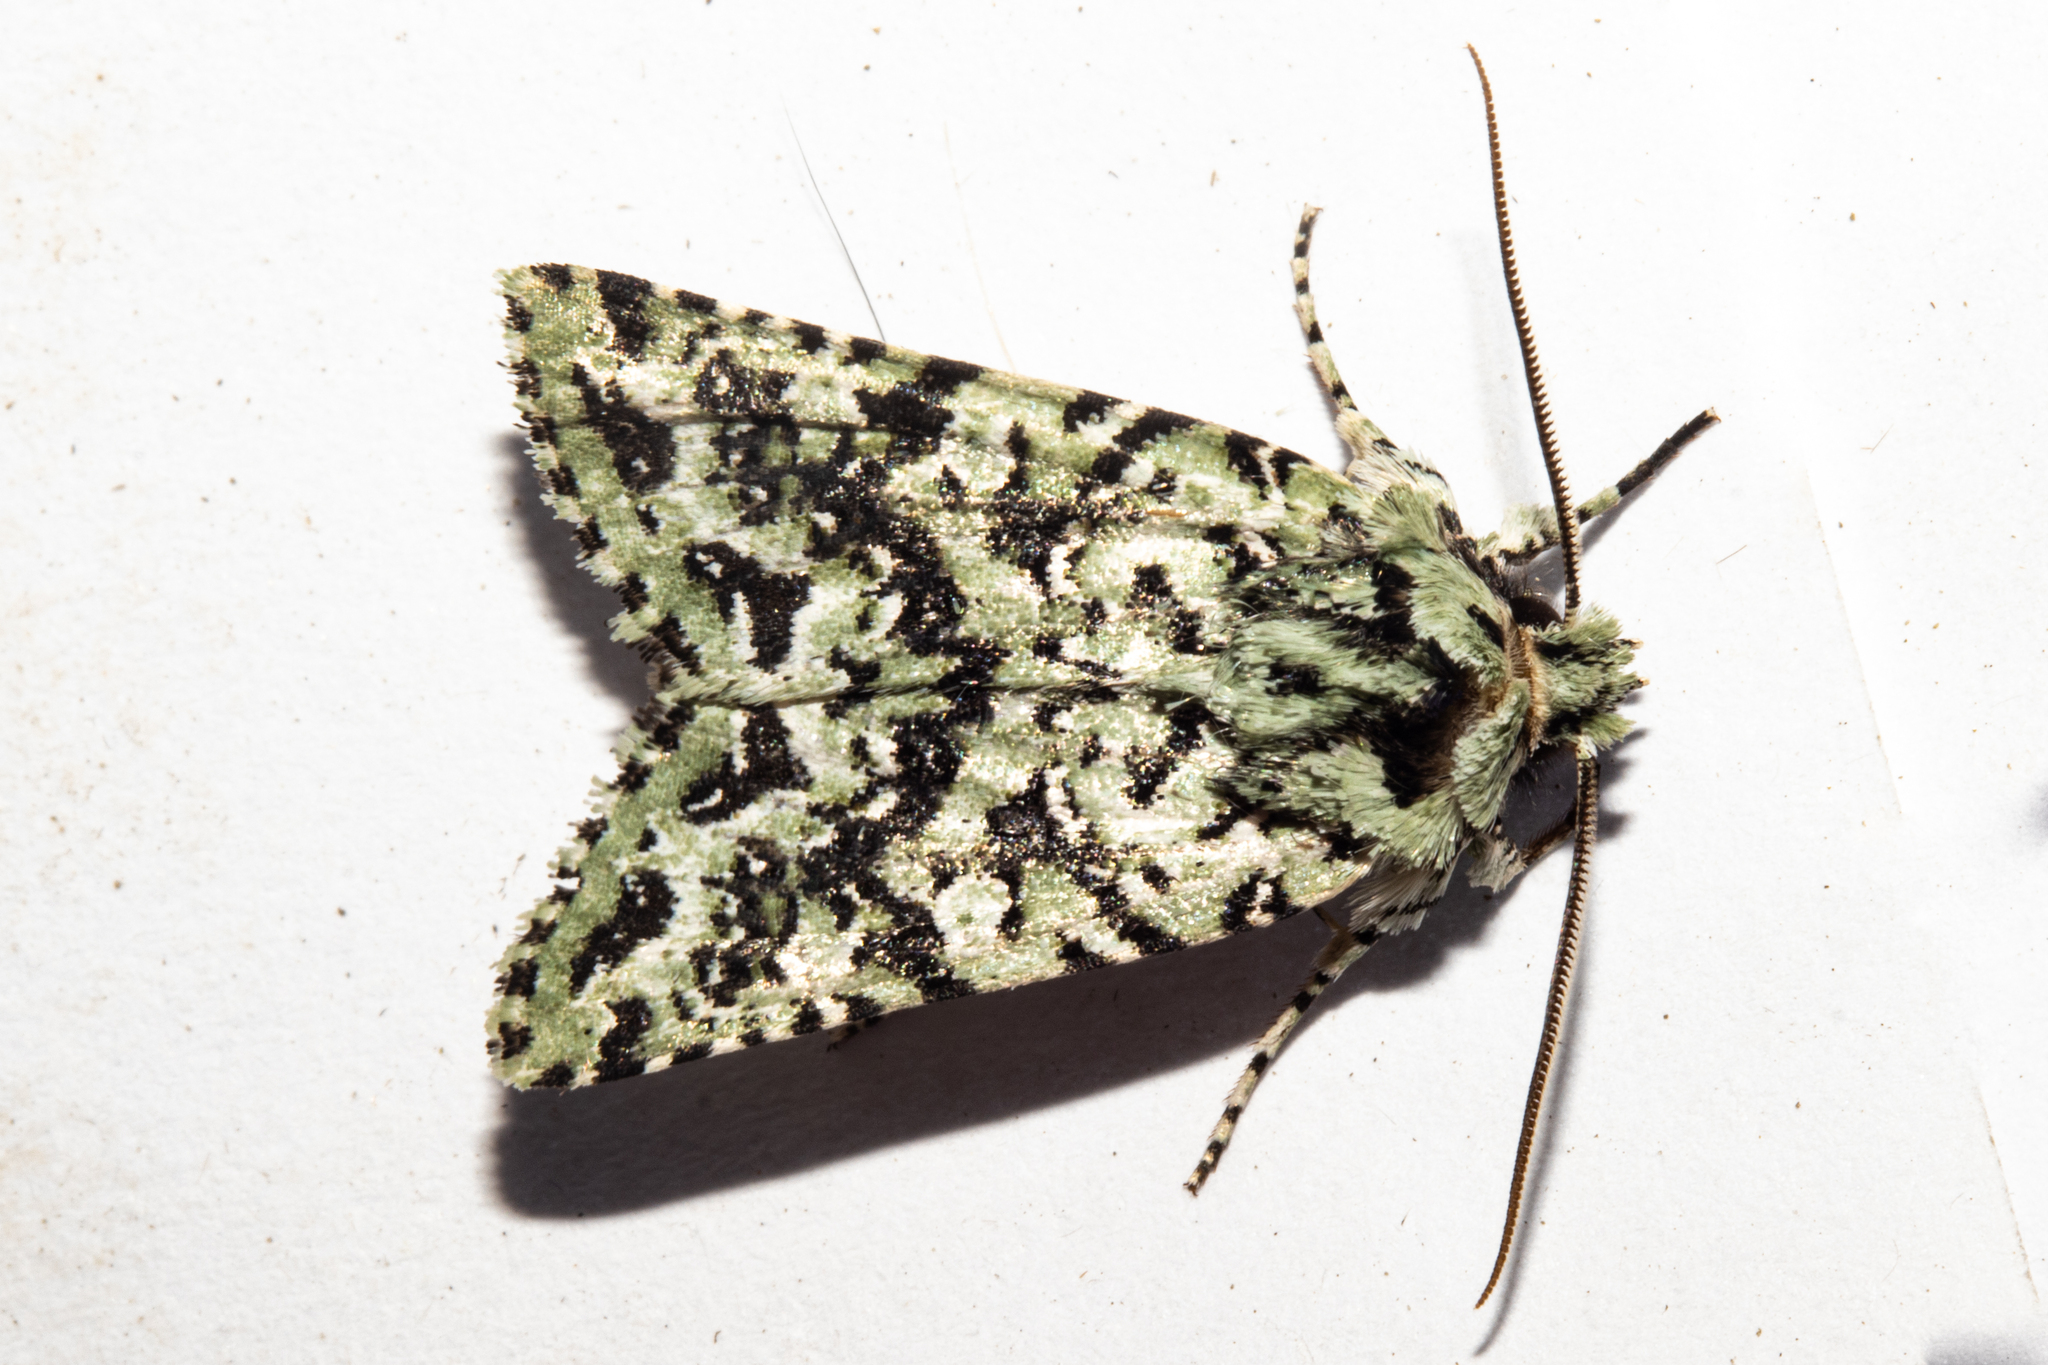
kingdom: Animalia
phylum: Arthropoda
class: Insecta
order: Lepidoptera
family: Noctuidae
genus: Meterana
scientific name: Meterana
